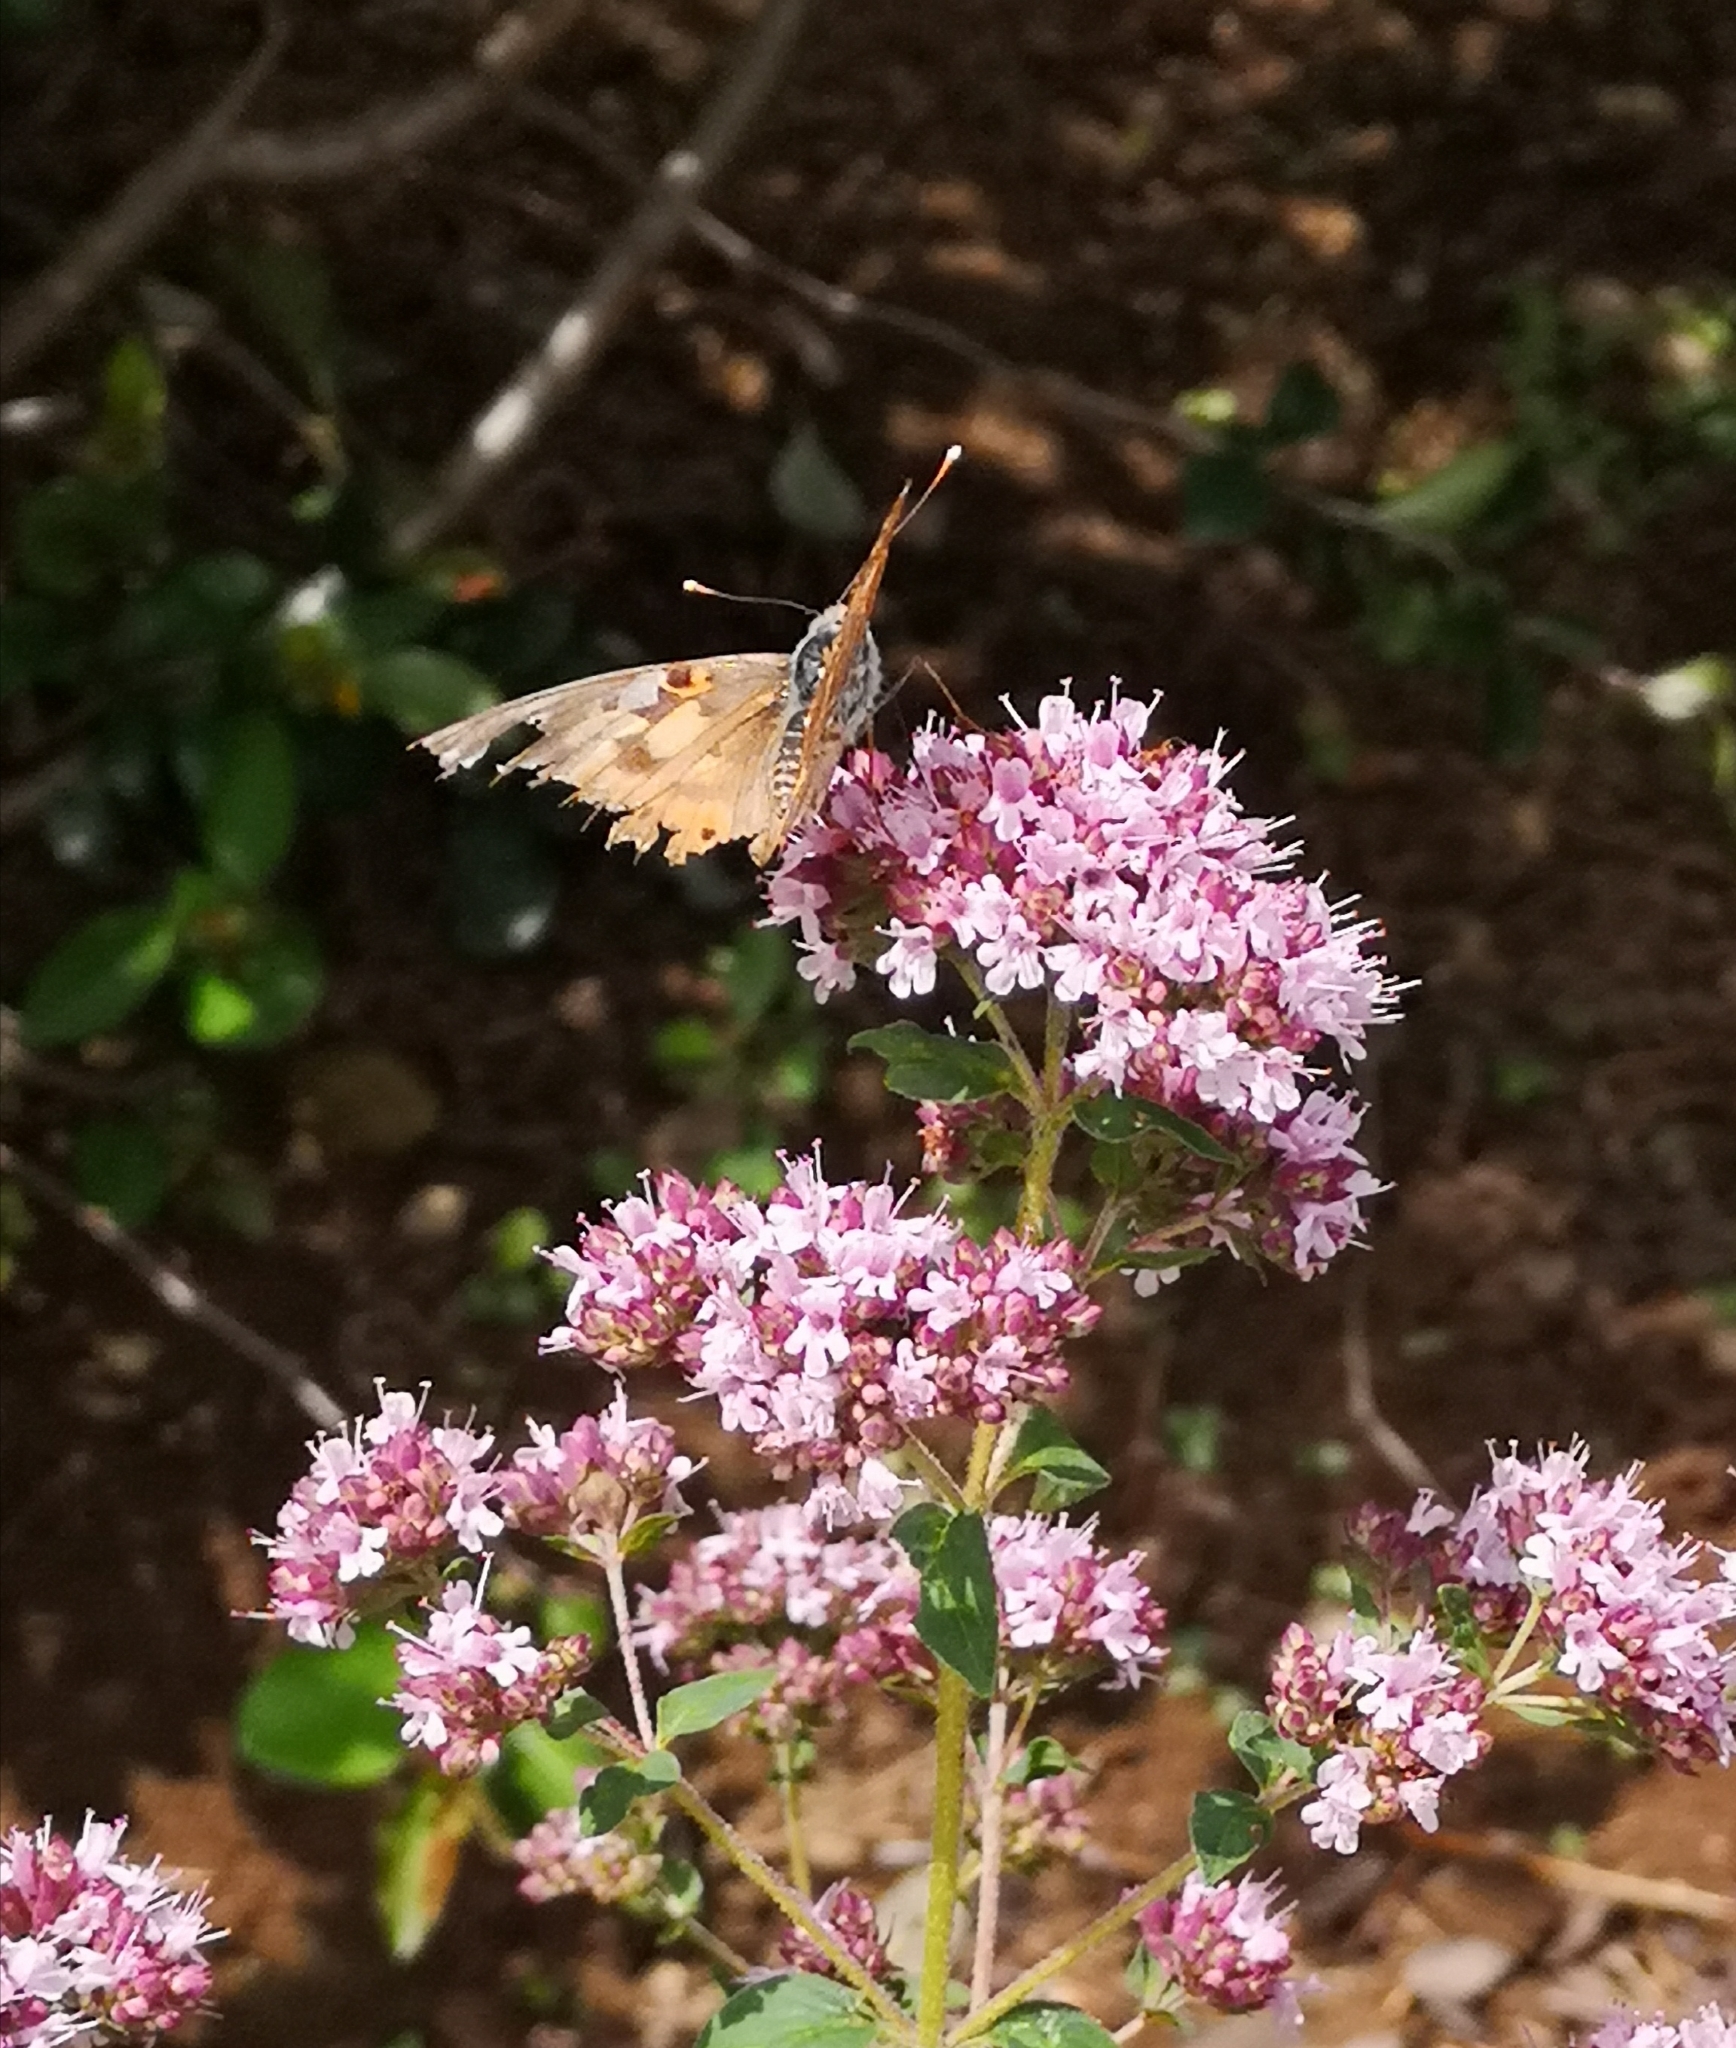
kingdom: Animalia
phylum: Arthropoda
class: Insecta
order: Lepidoptera
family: Nymphalidae
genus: Vanessa
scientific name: Vanessa cardui
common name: Painted lady
